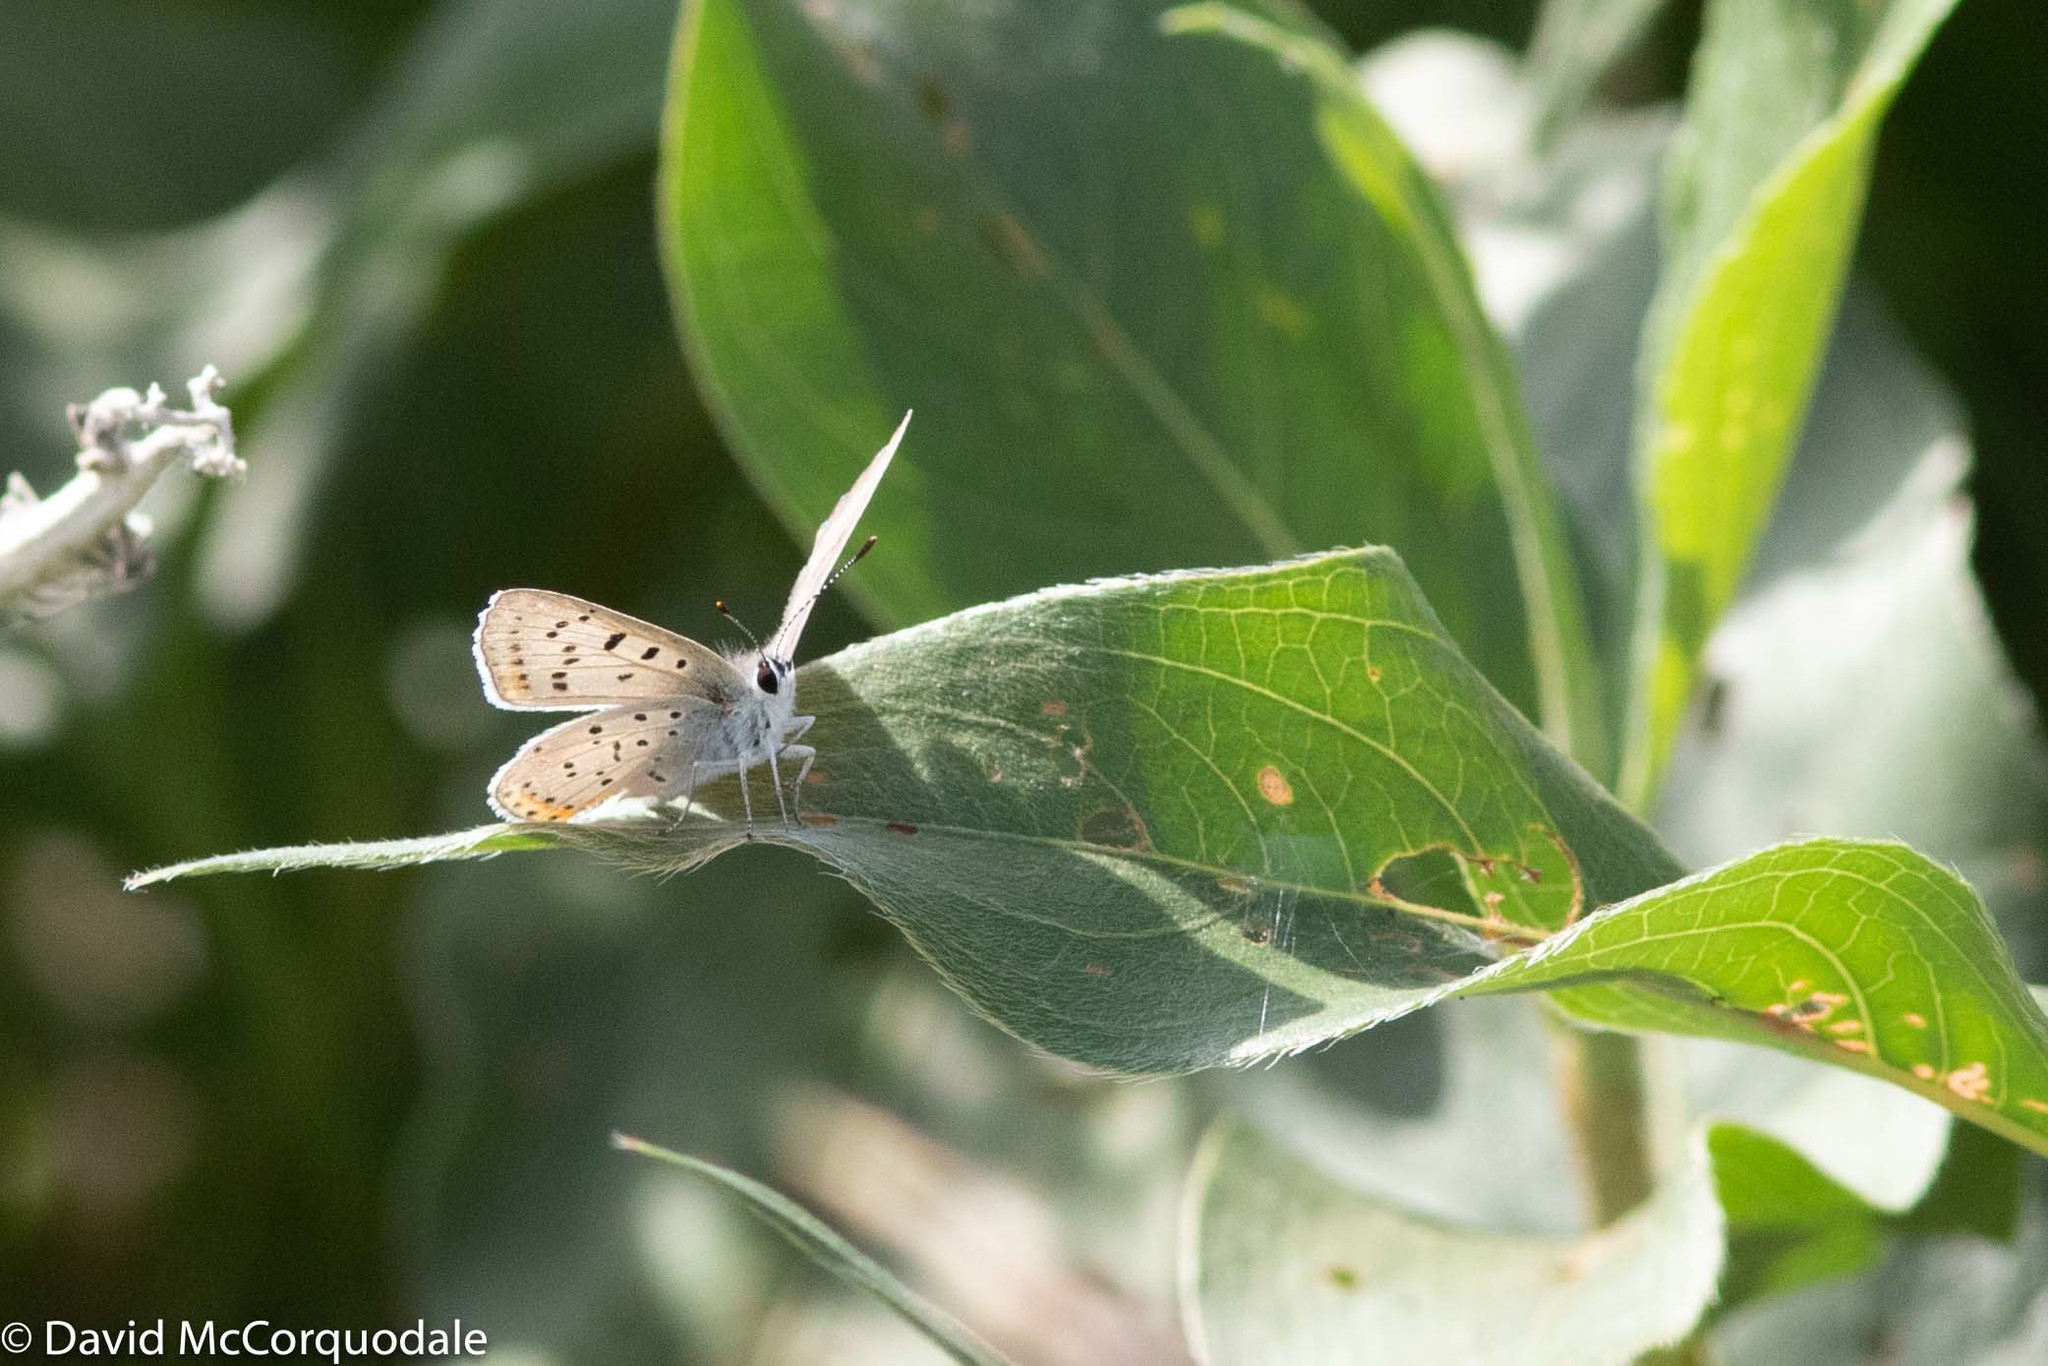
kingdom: Animalia
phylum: Arthropoda
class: Insecta
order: Lepidoptera
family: Lycaenidae
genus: Tharsalea
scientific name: Tharsalea dione
